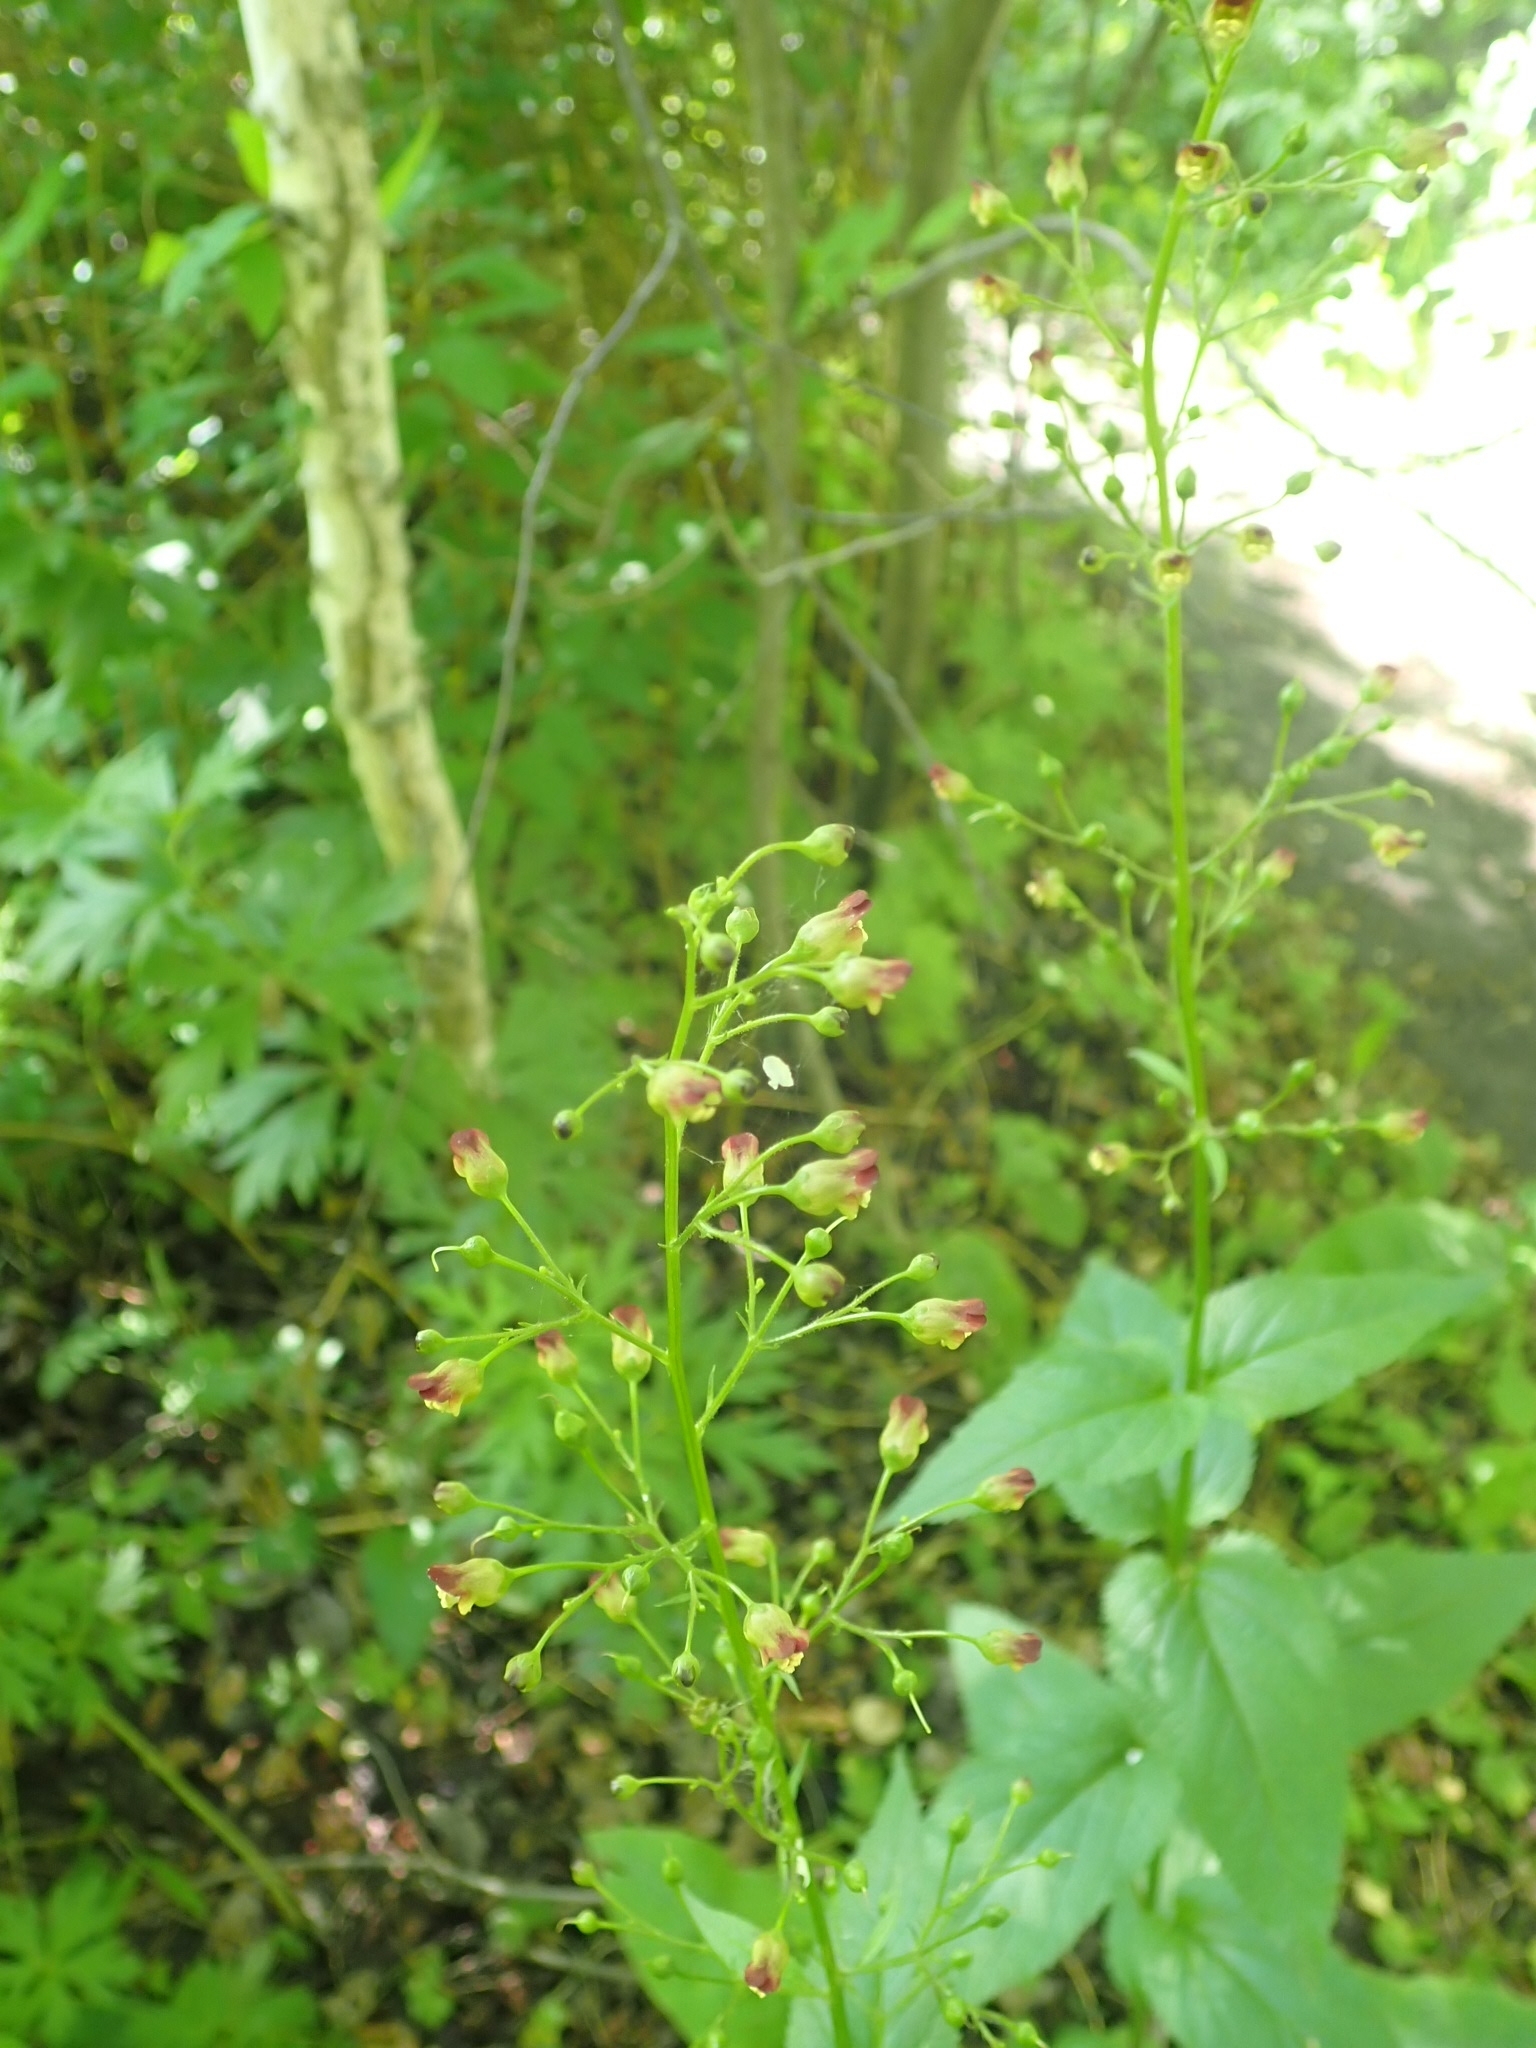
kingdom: Plantae
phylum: Tracheophyta
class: Magnoliopsida
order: Lamiales
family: Scrophulariaceae
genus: Scrophularia
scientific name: Scrophularia nodosa
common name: Common figwort
